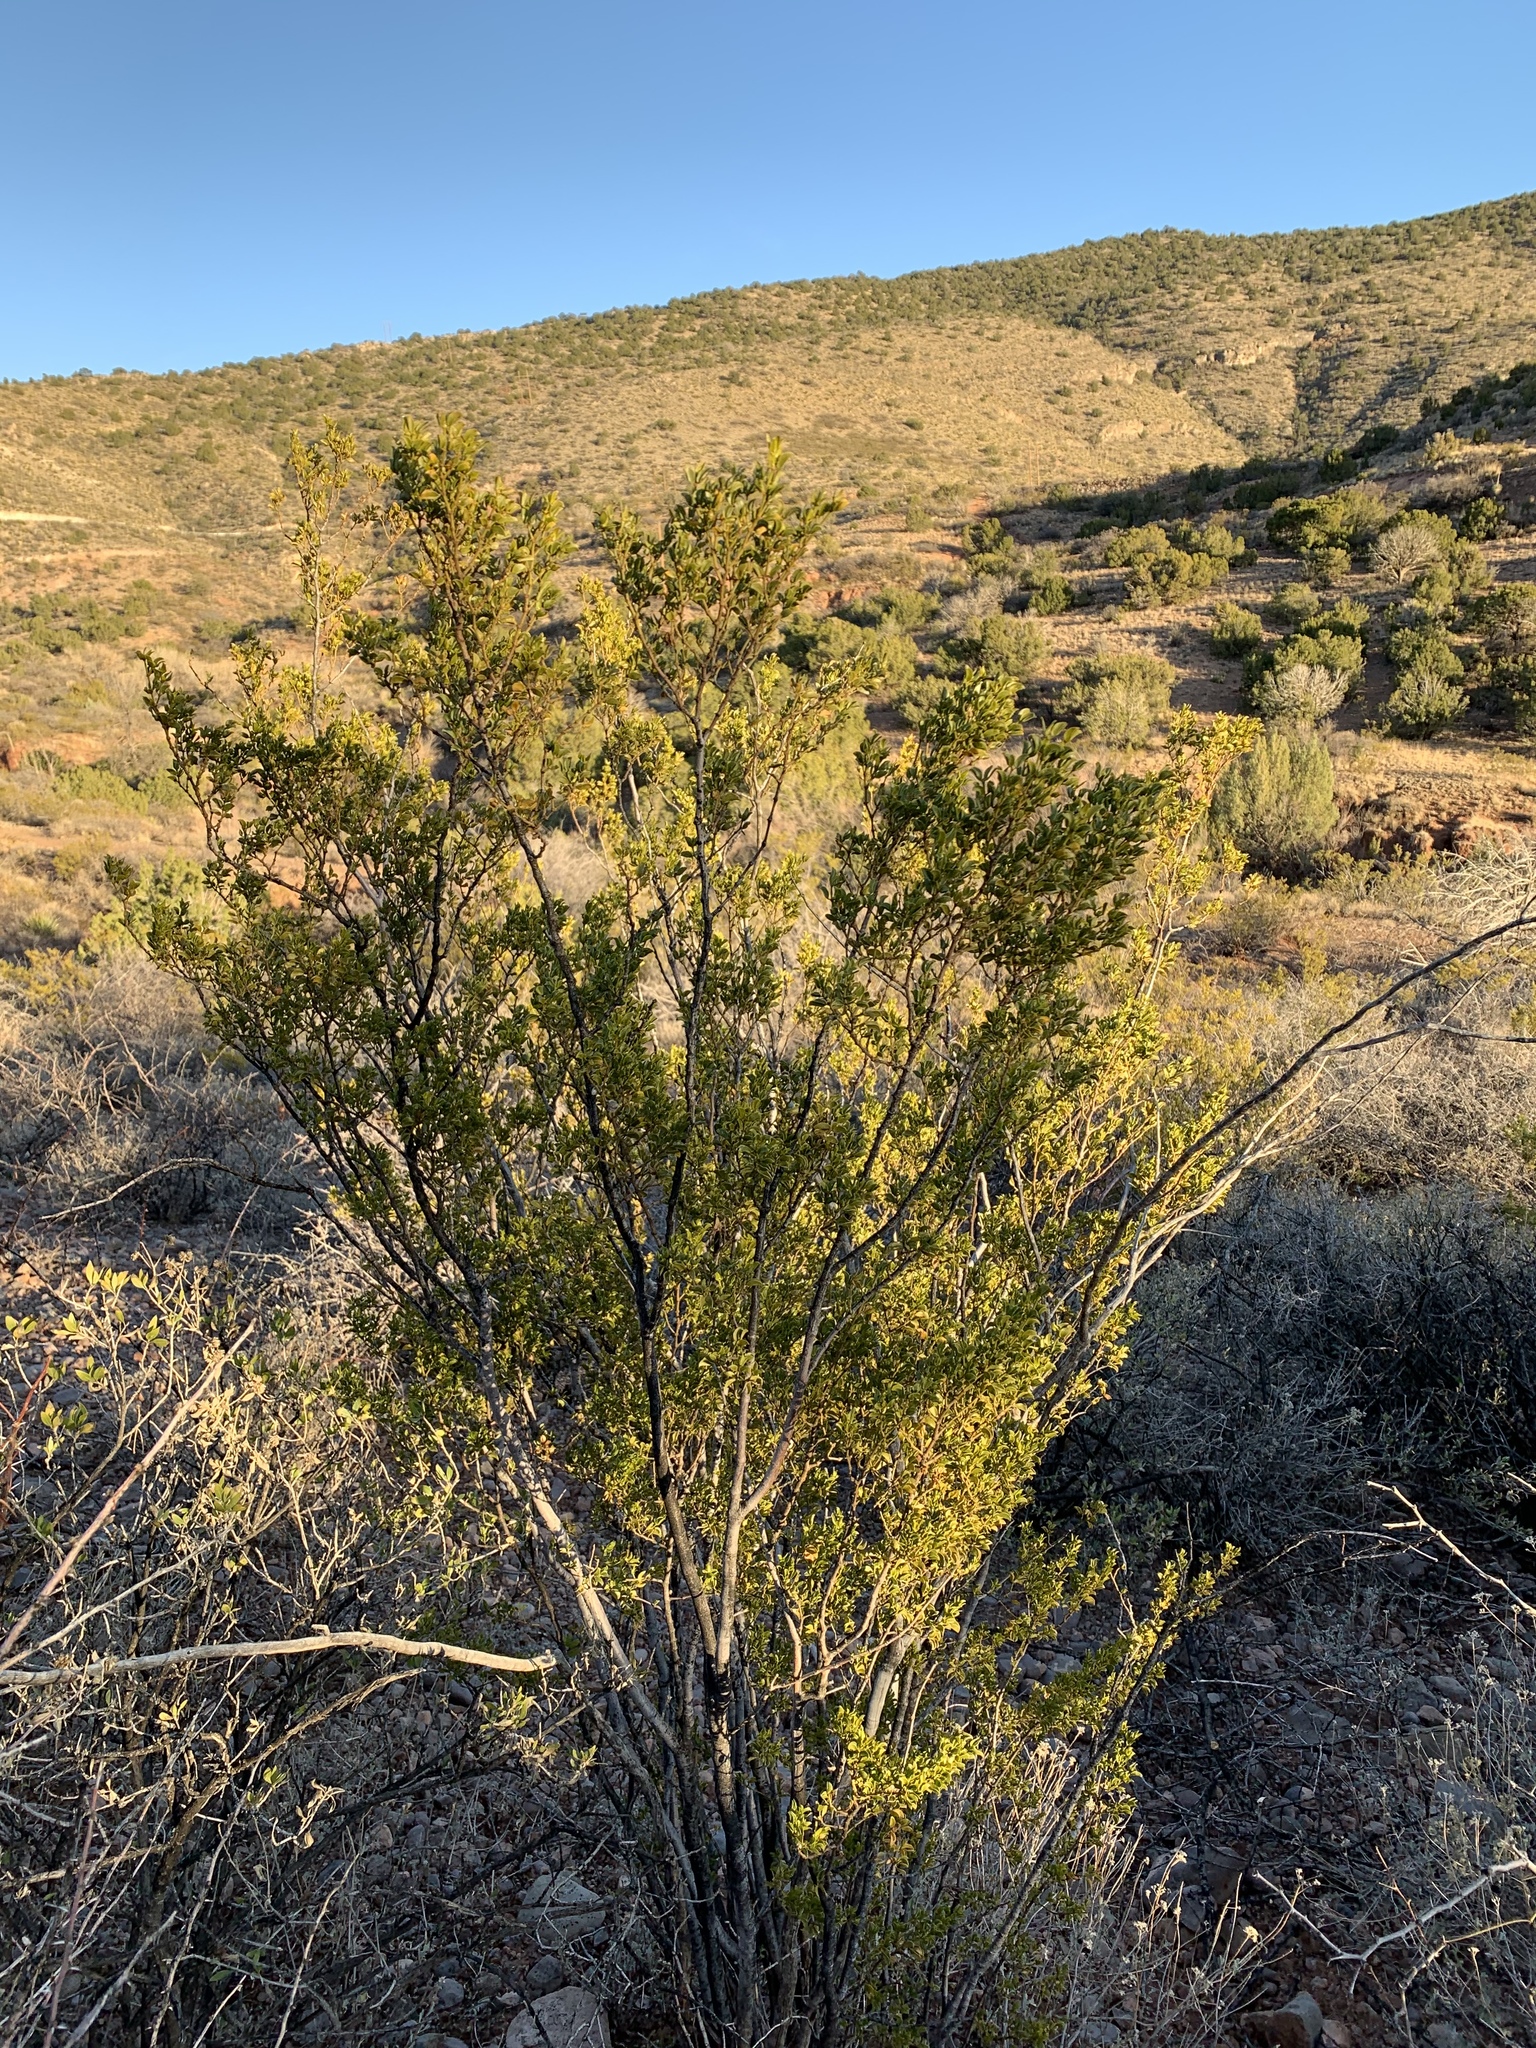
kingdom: Plantae
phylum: Tracheophyta
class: Magnoliopsida
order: Zygophyllales
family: Zygophyllaceae
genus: Larrea
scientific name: Larrea tridentata
